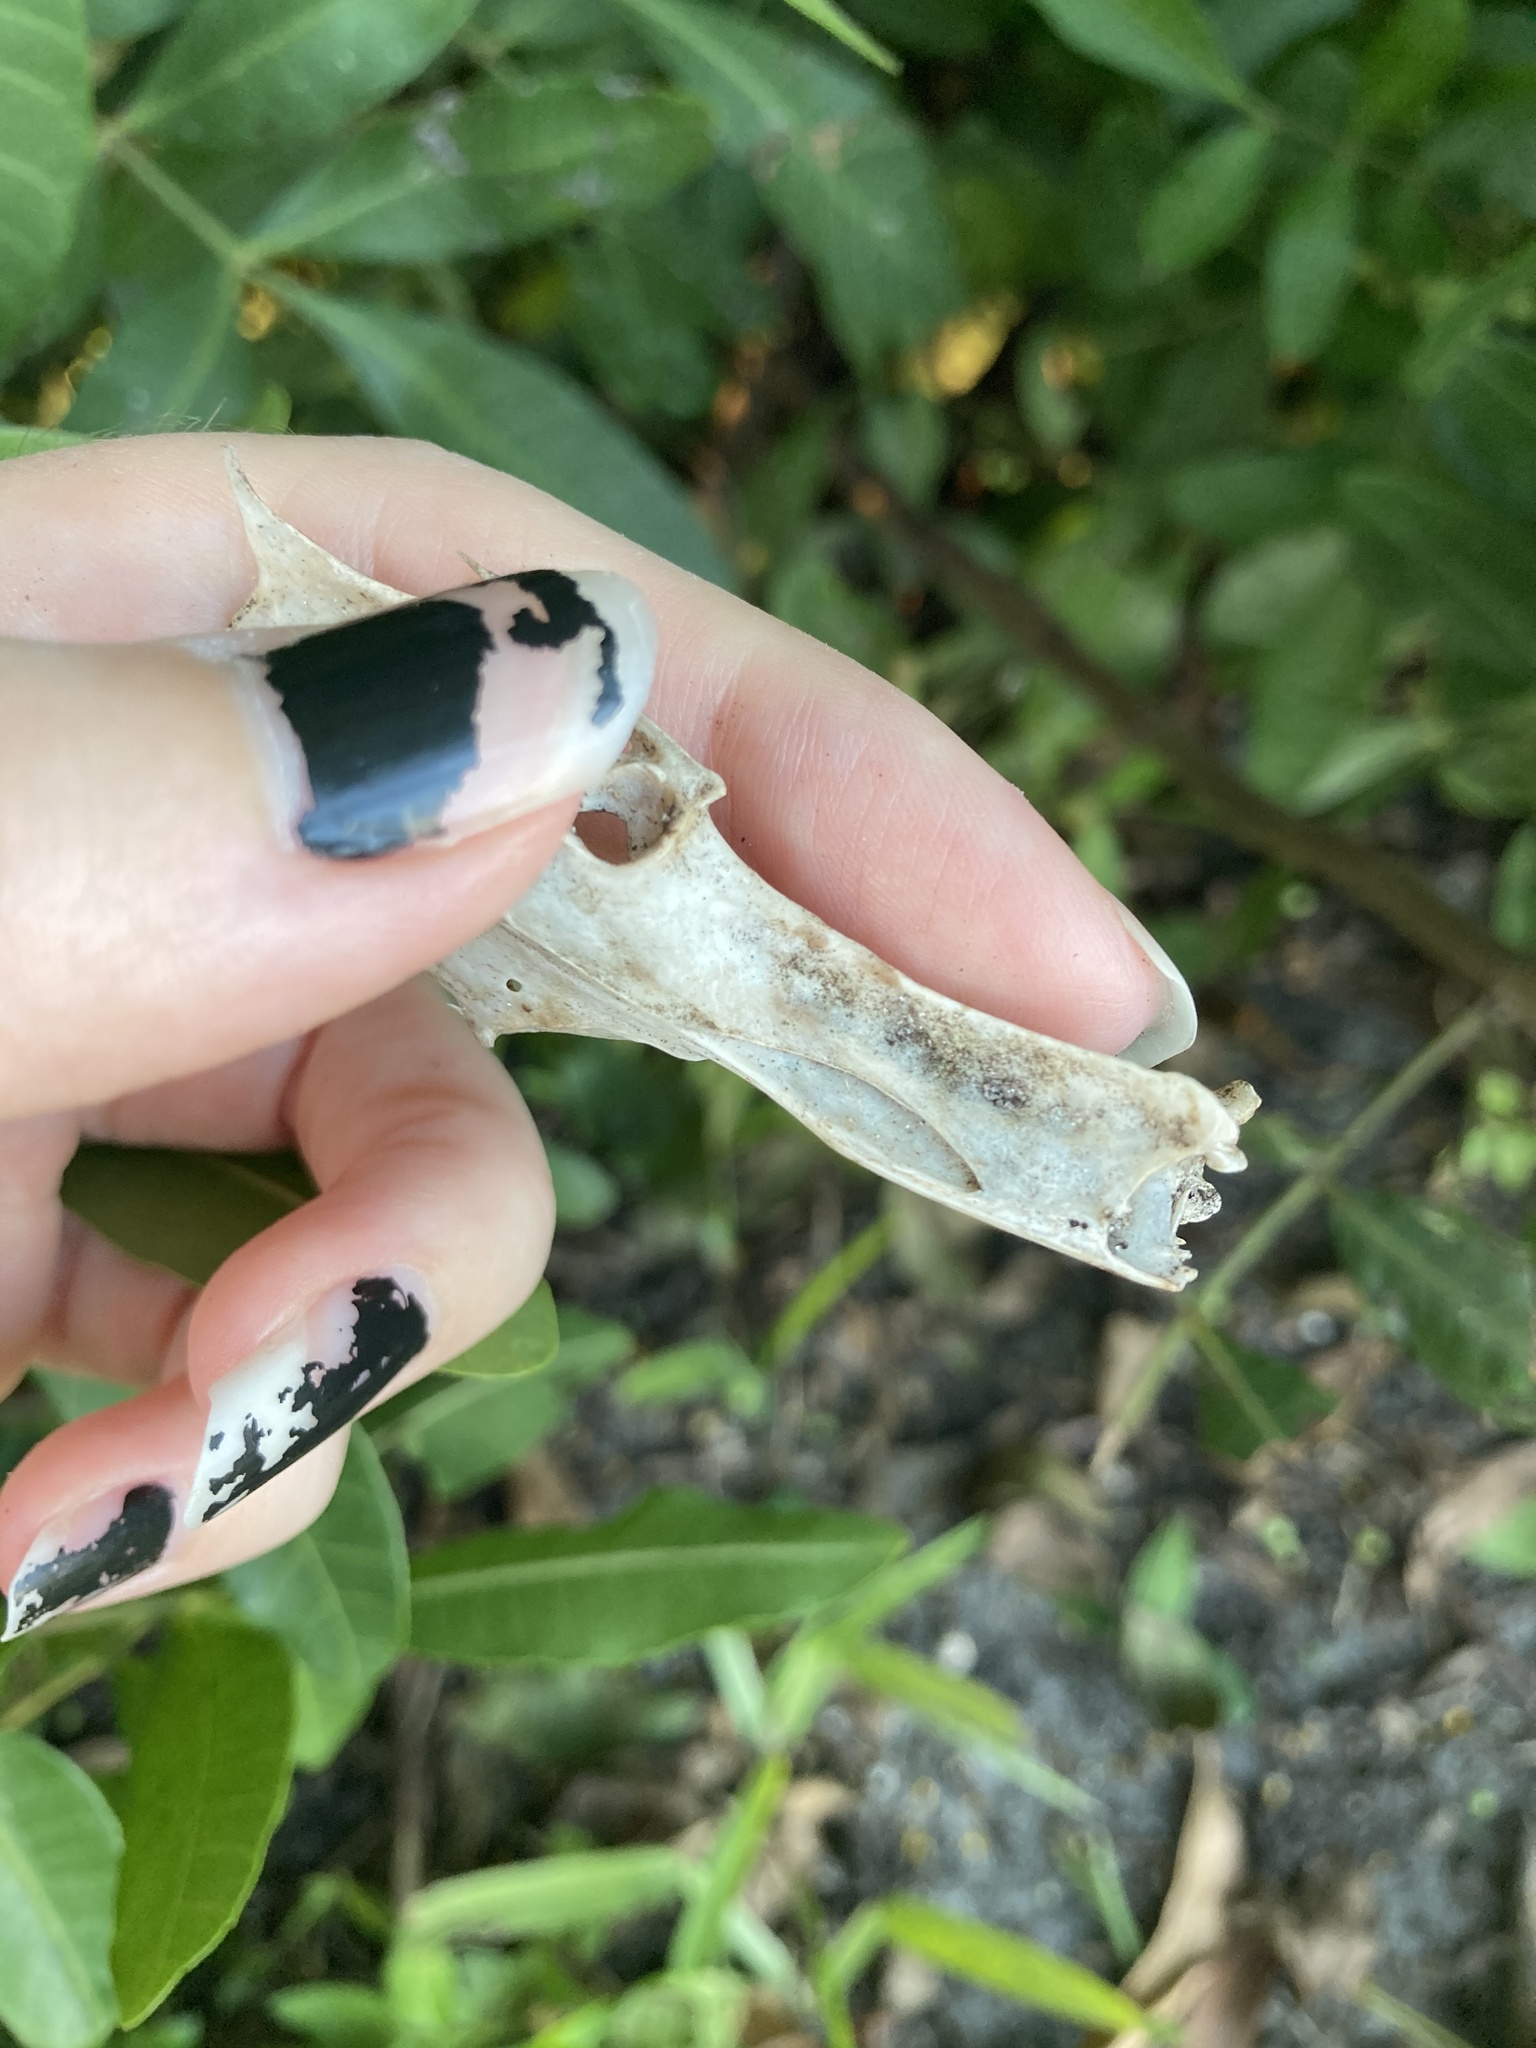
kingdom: Animalia
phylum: Chordata
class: Aves
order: Gruiformes
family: Rallidae
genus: Gallinula
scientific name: Gallinula chloropus
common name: Common moorhen
